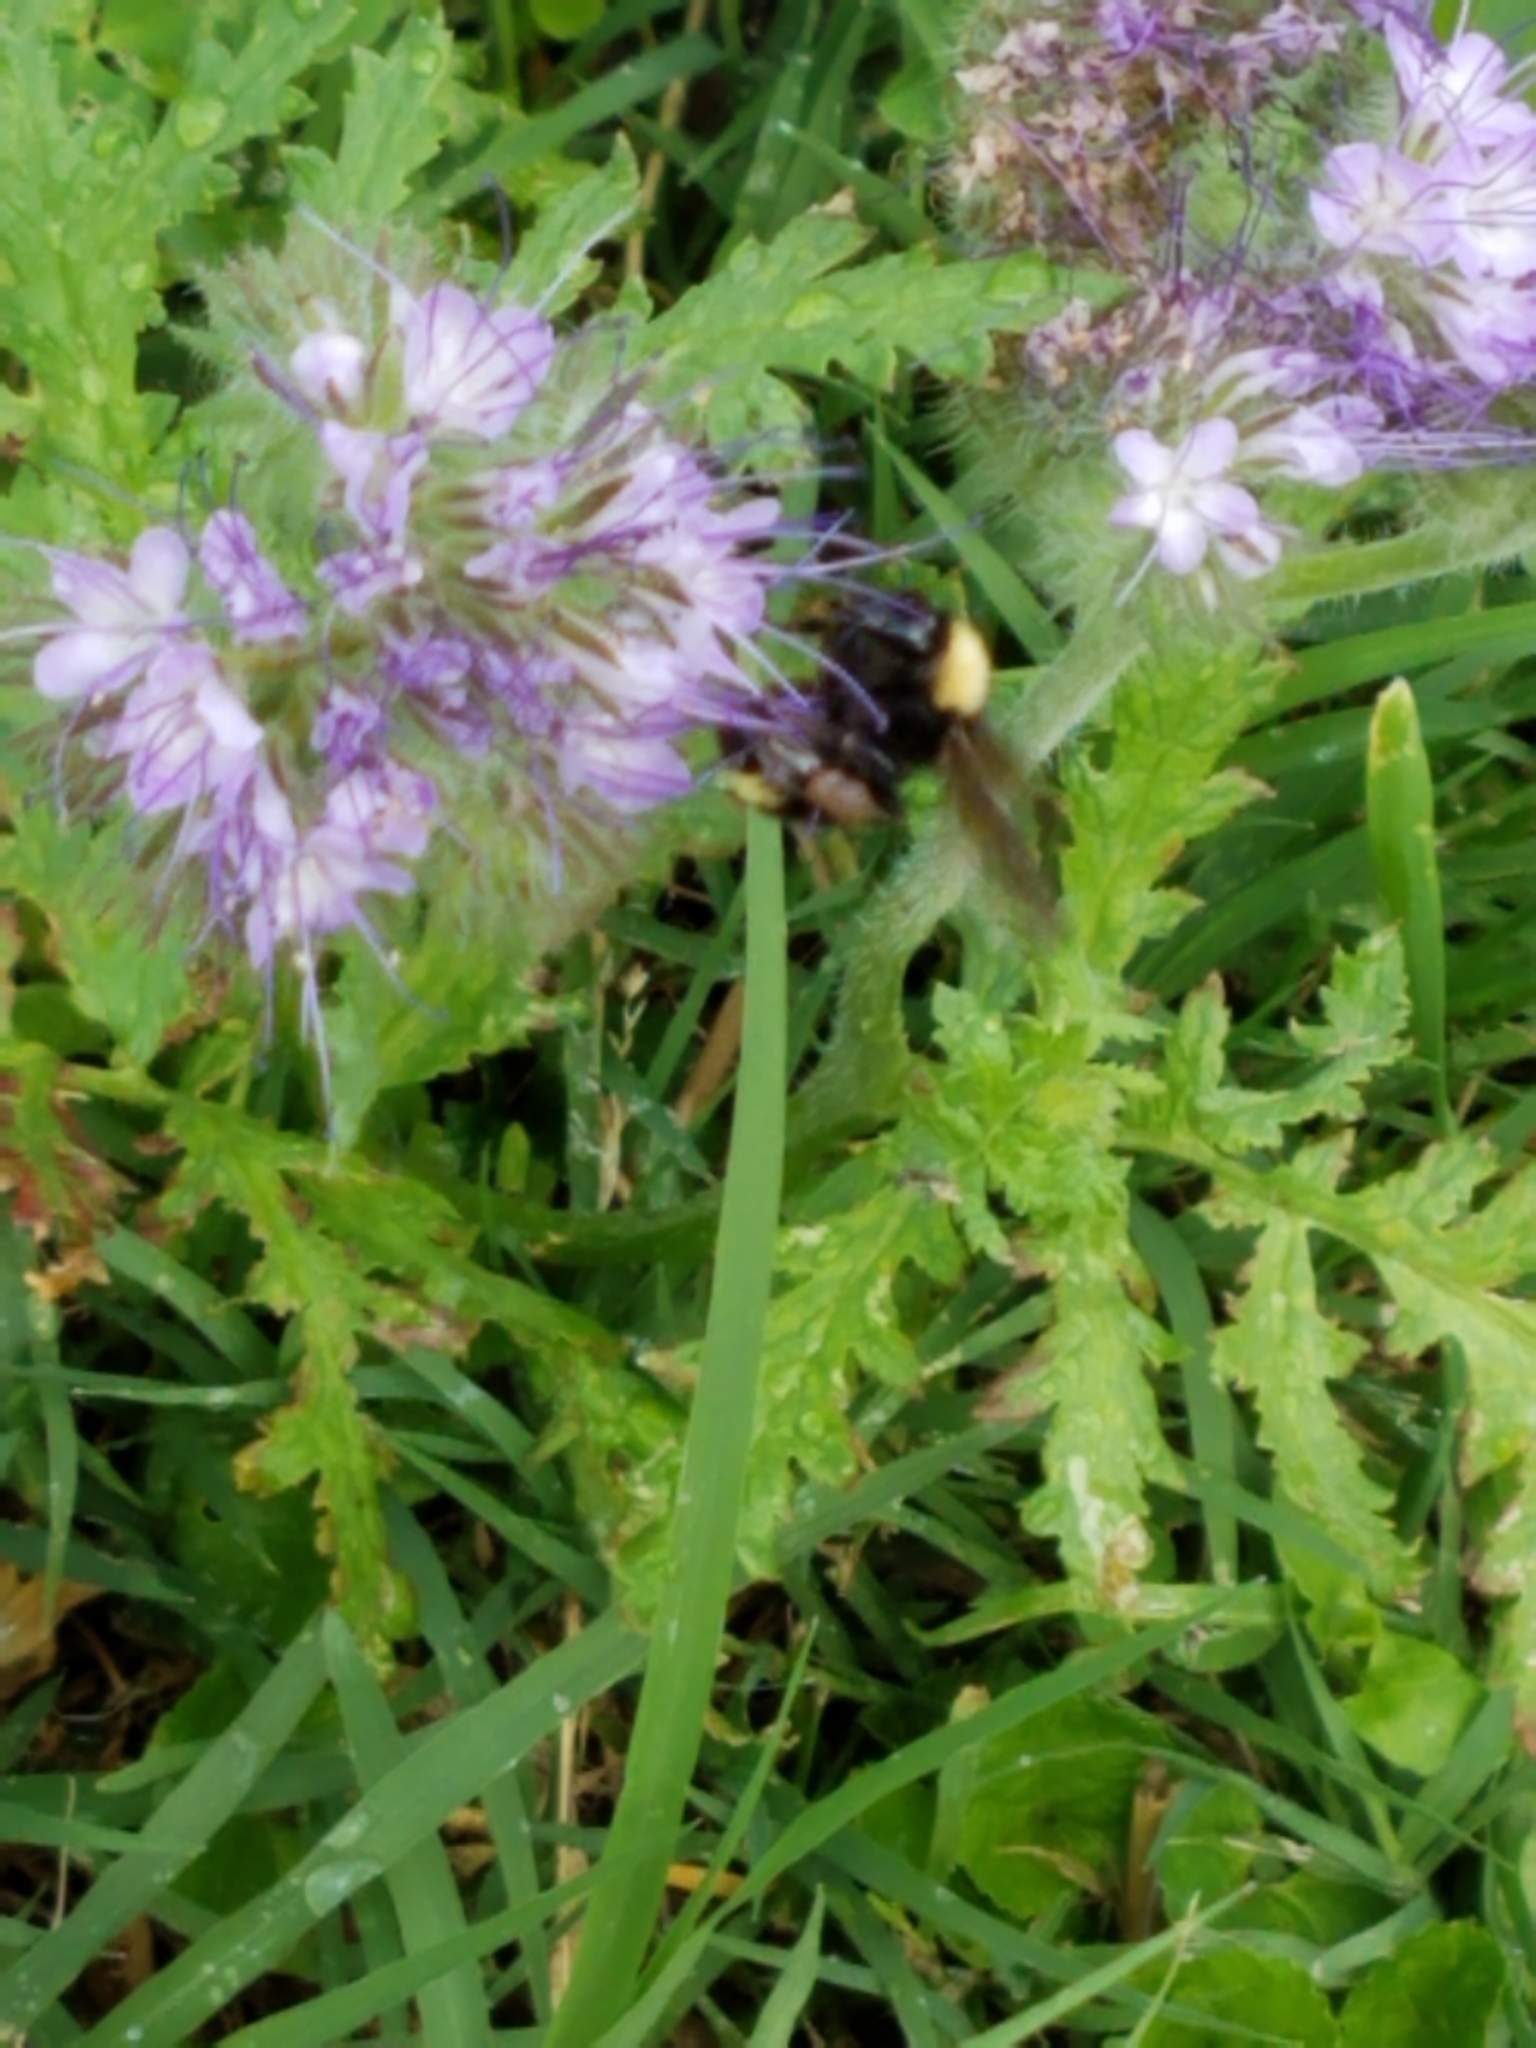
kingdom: Animalia
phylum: Arthropoda
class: Insecta
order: Hymenoptera
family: Apidae
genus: Bombus
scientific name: Bombus californicus
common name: California bumble bee
